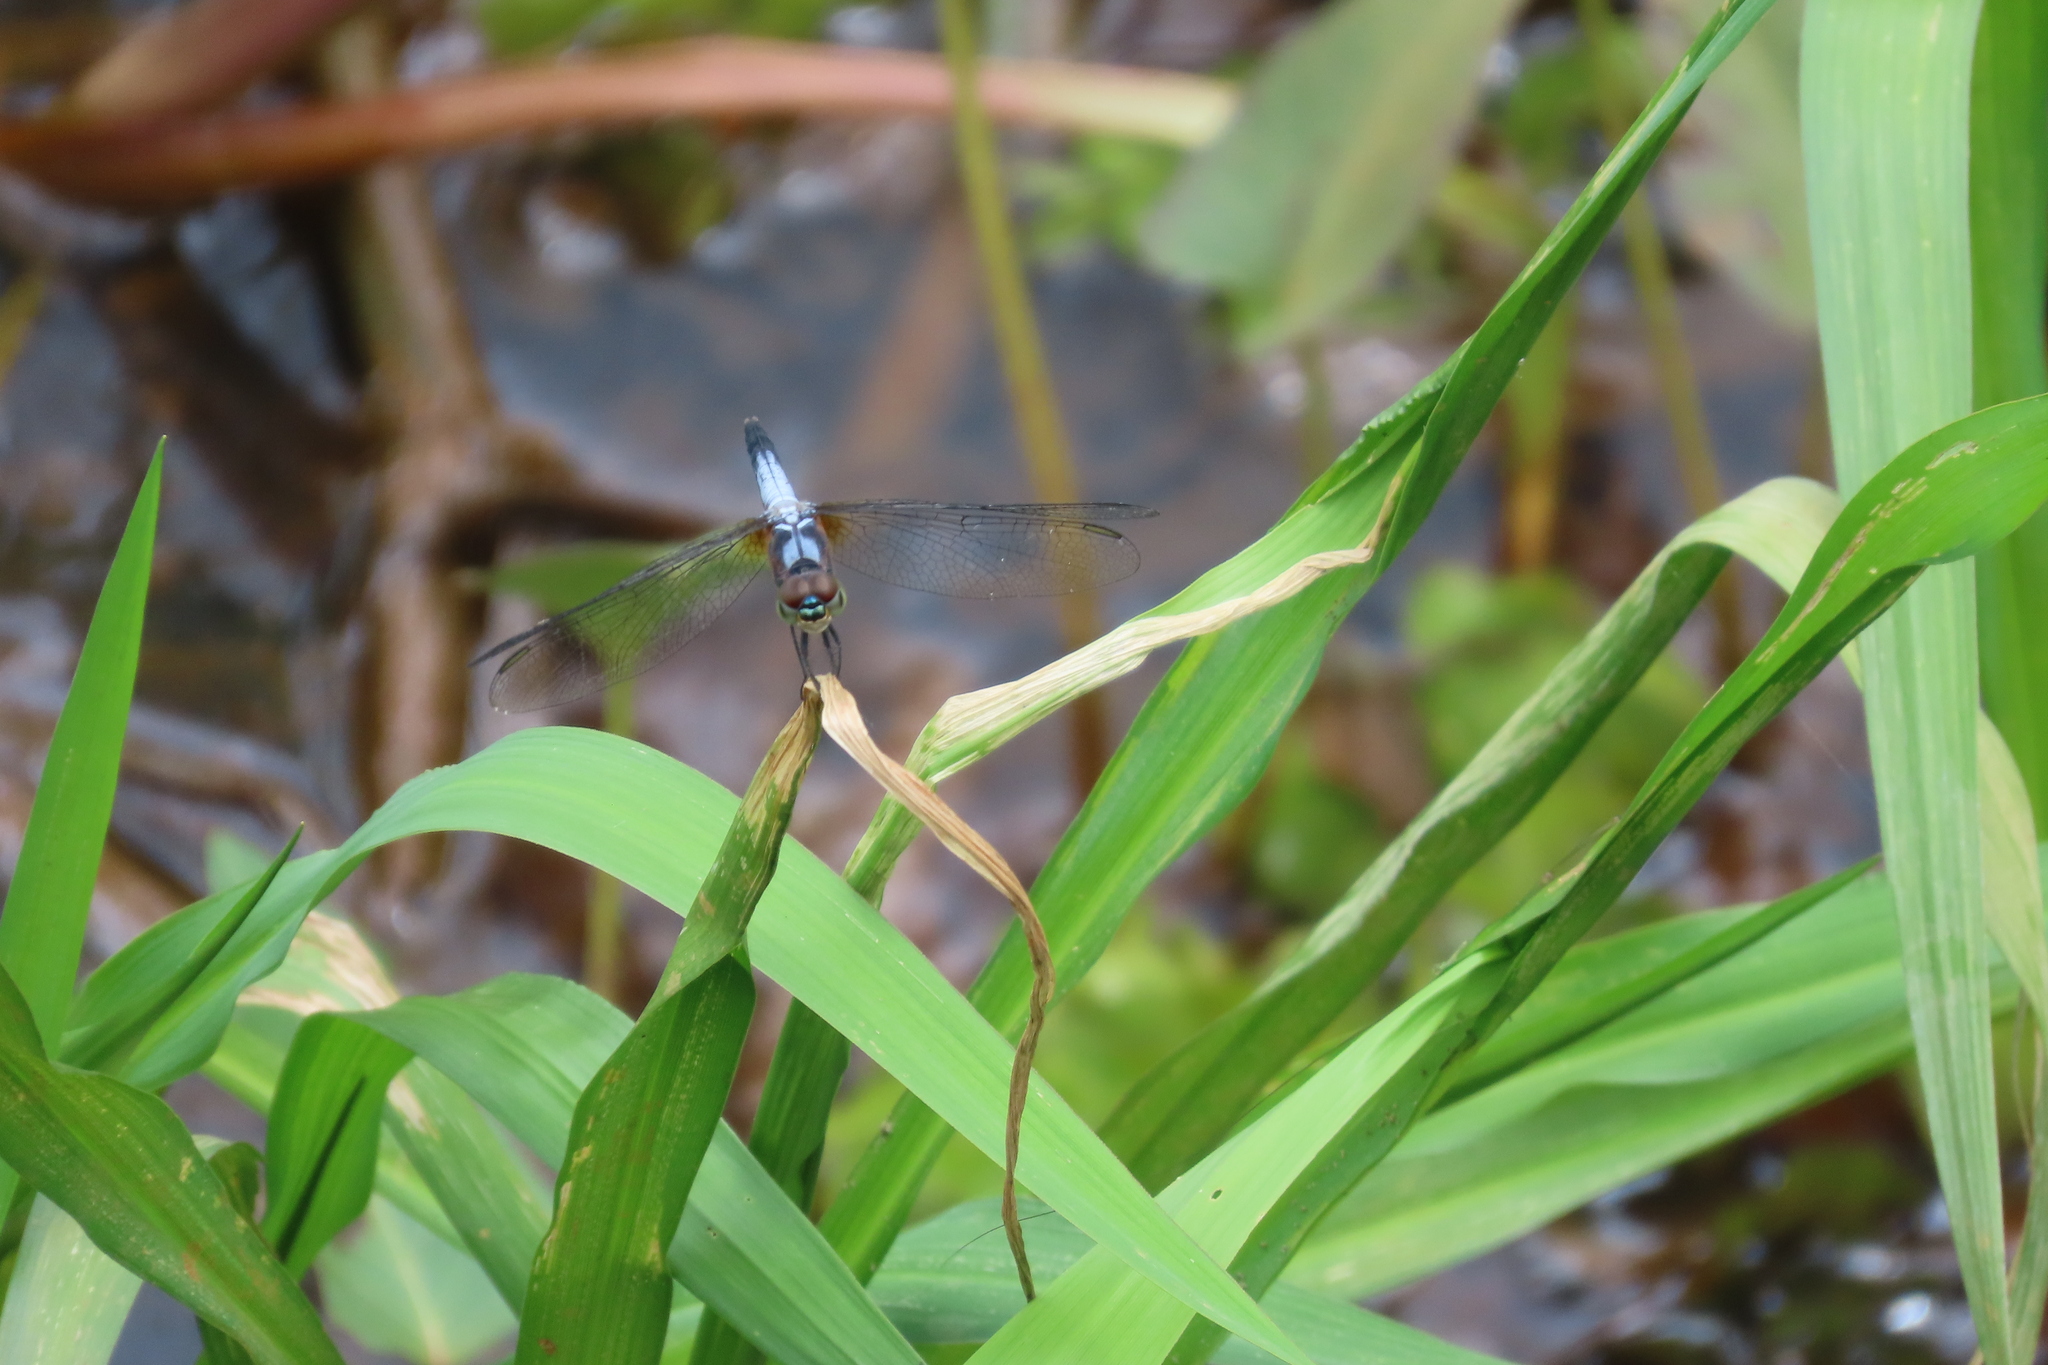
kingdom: Animalia
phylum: Arthropoda
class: Insecta
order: Odonata
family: Libellulidae
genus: Brachydiplax
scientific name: Brachydiplax chalybea
